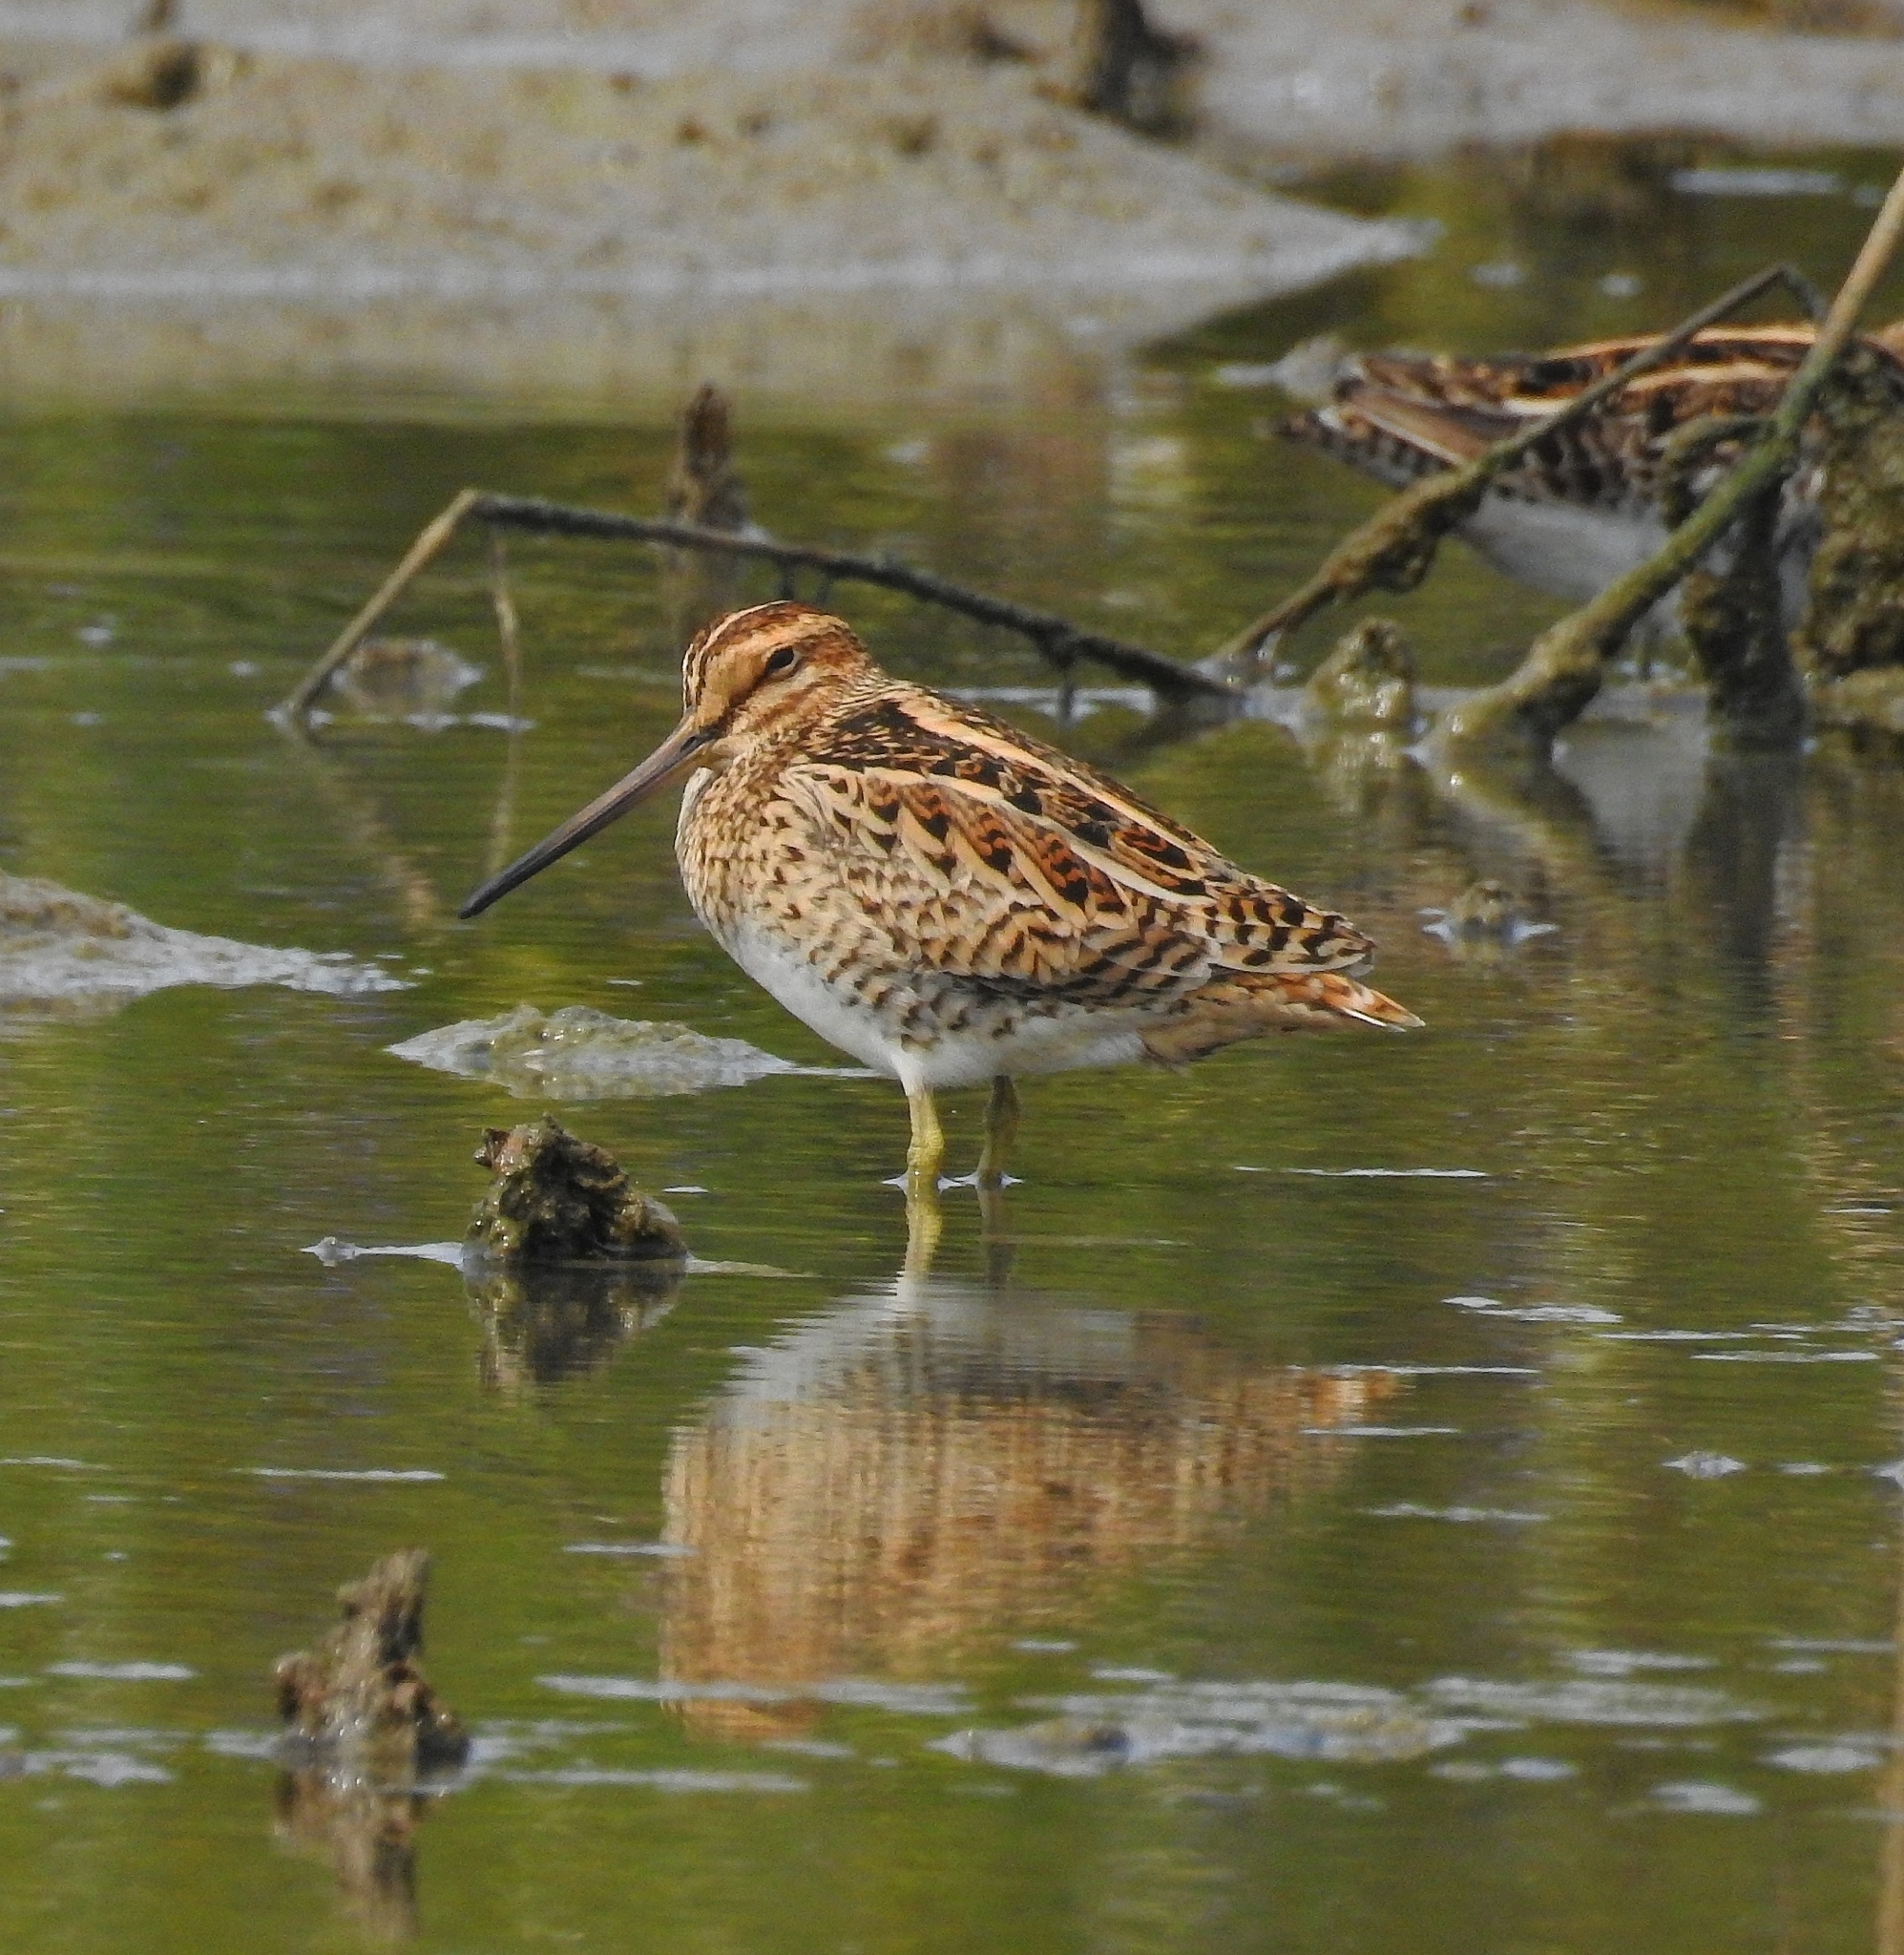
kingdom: Animalia
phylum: Chordata
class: Aves
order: Charadriiformes
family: Scolopacidae
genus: Gallinago
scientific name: Gallinago gallinago
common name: Common snipe
